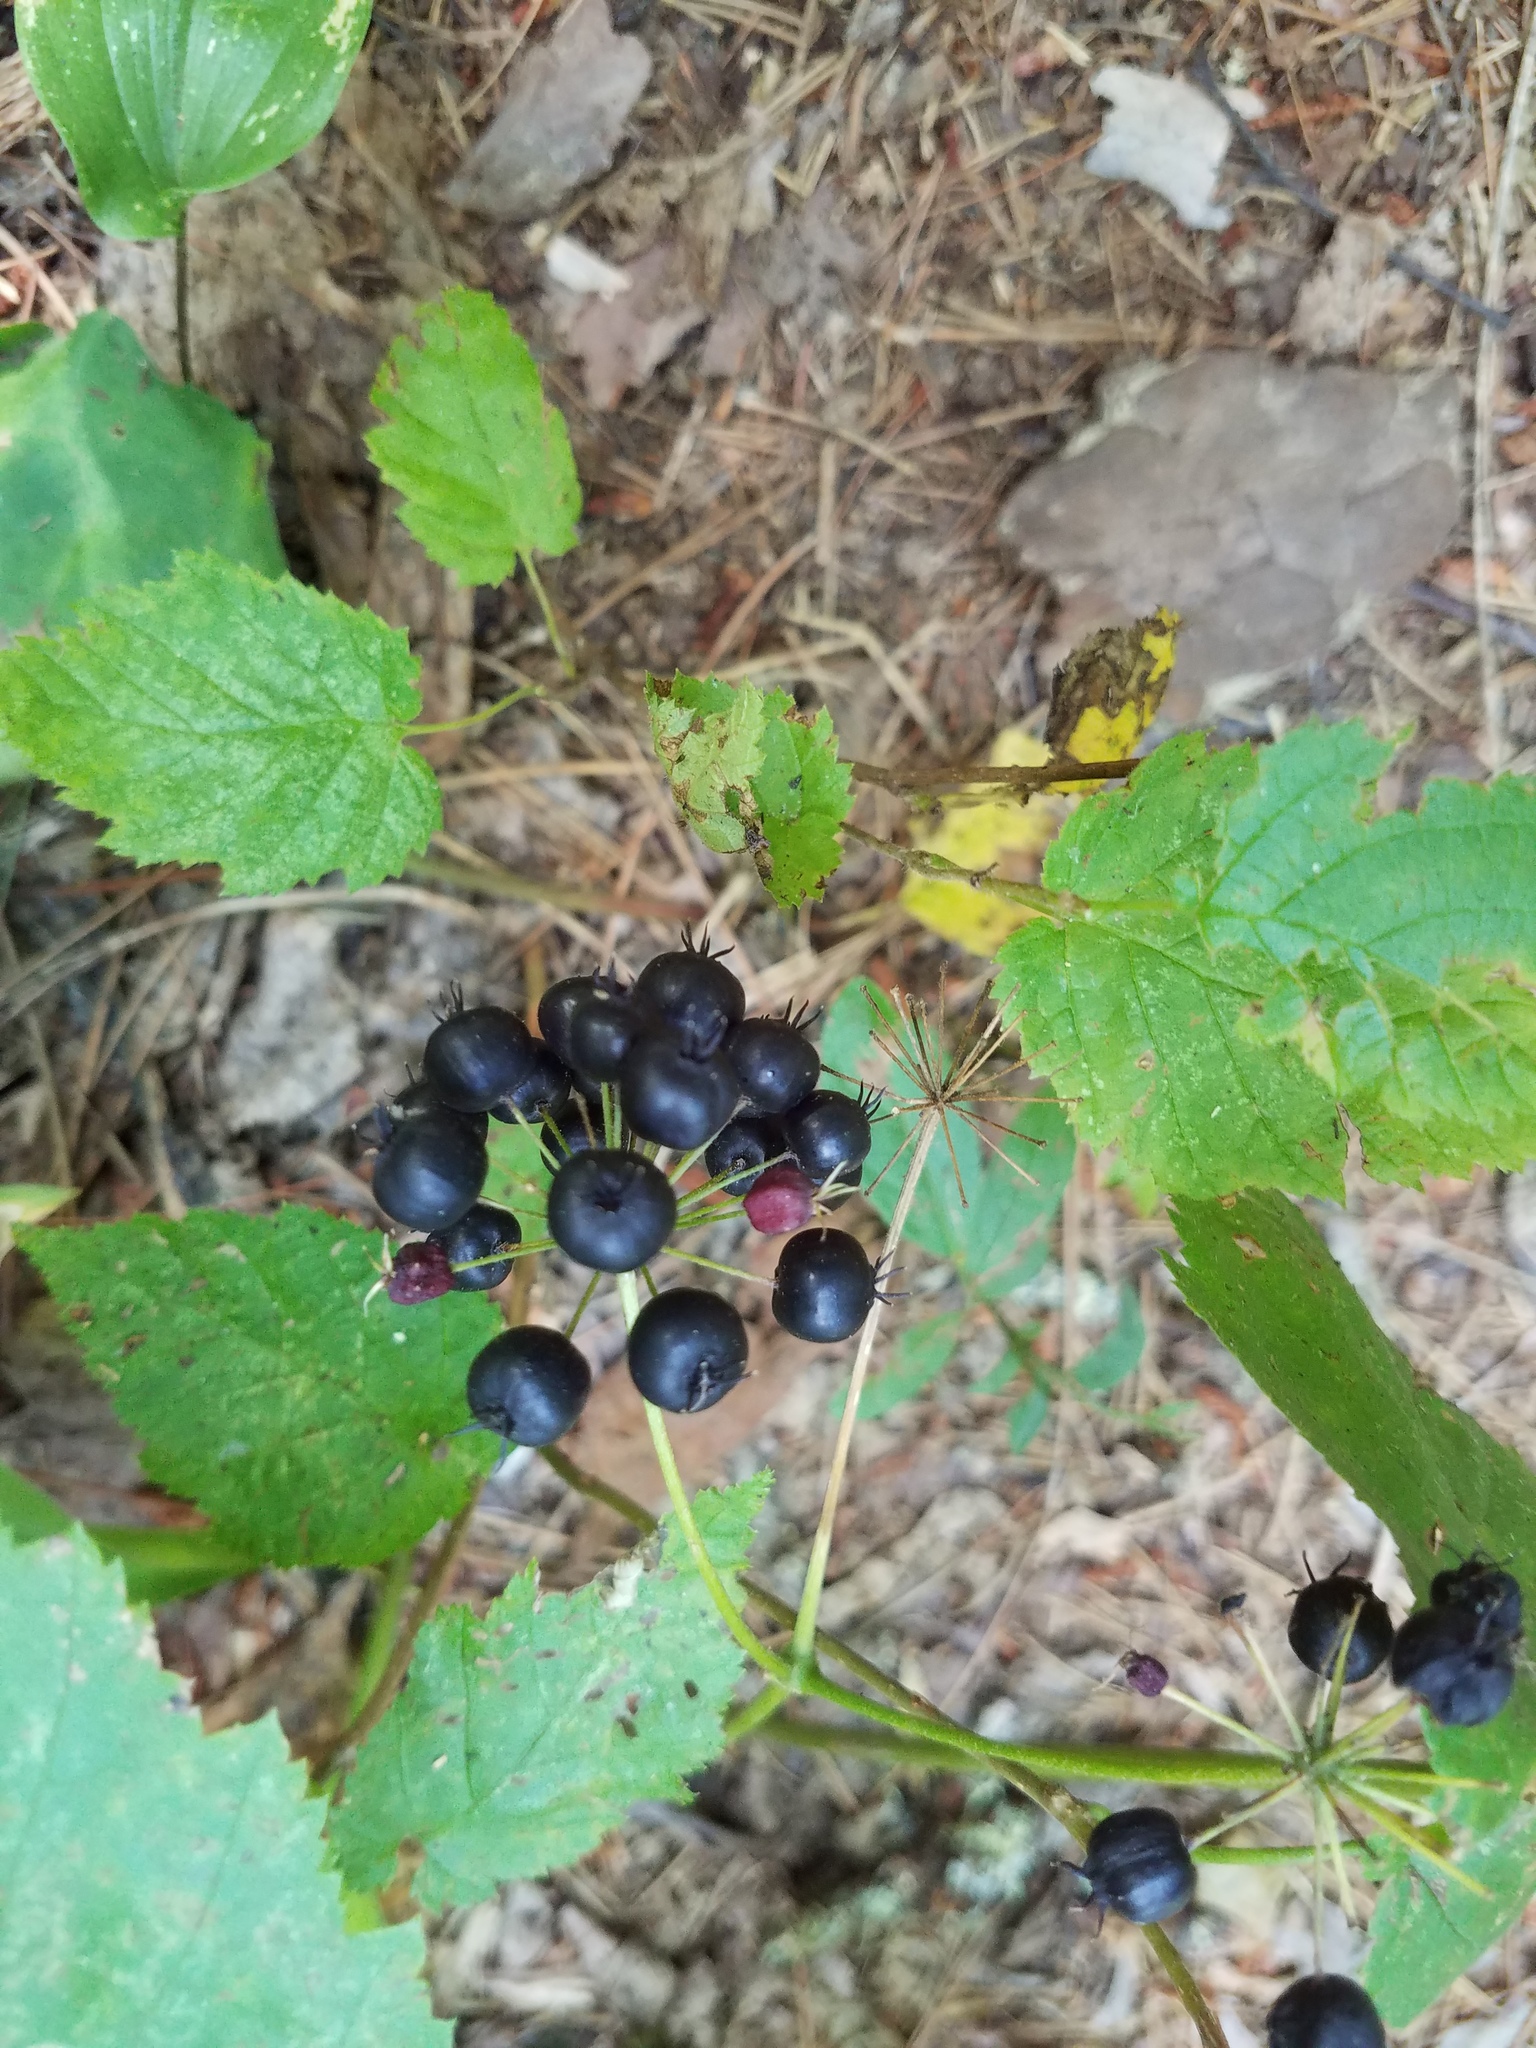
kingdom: Plantae
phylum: Tracheophyta
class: Magnoliopsida
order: Apiales
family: Araliaceae
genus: Aralia
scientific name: Aralia nudicaulis
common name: Wild sarsaparilla
